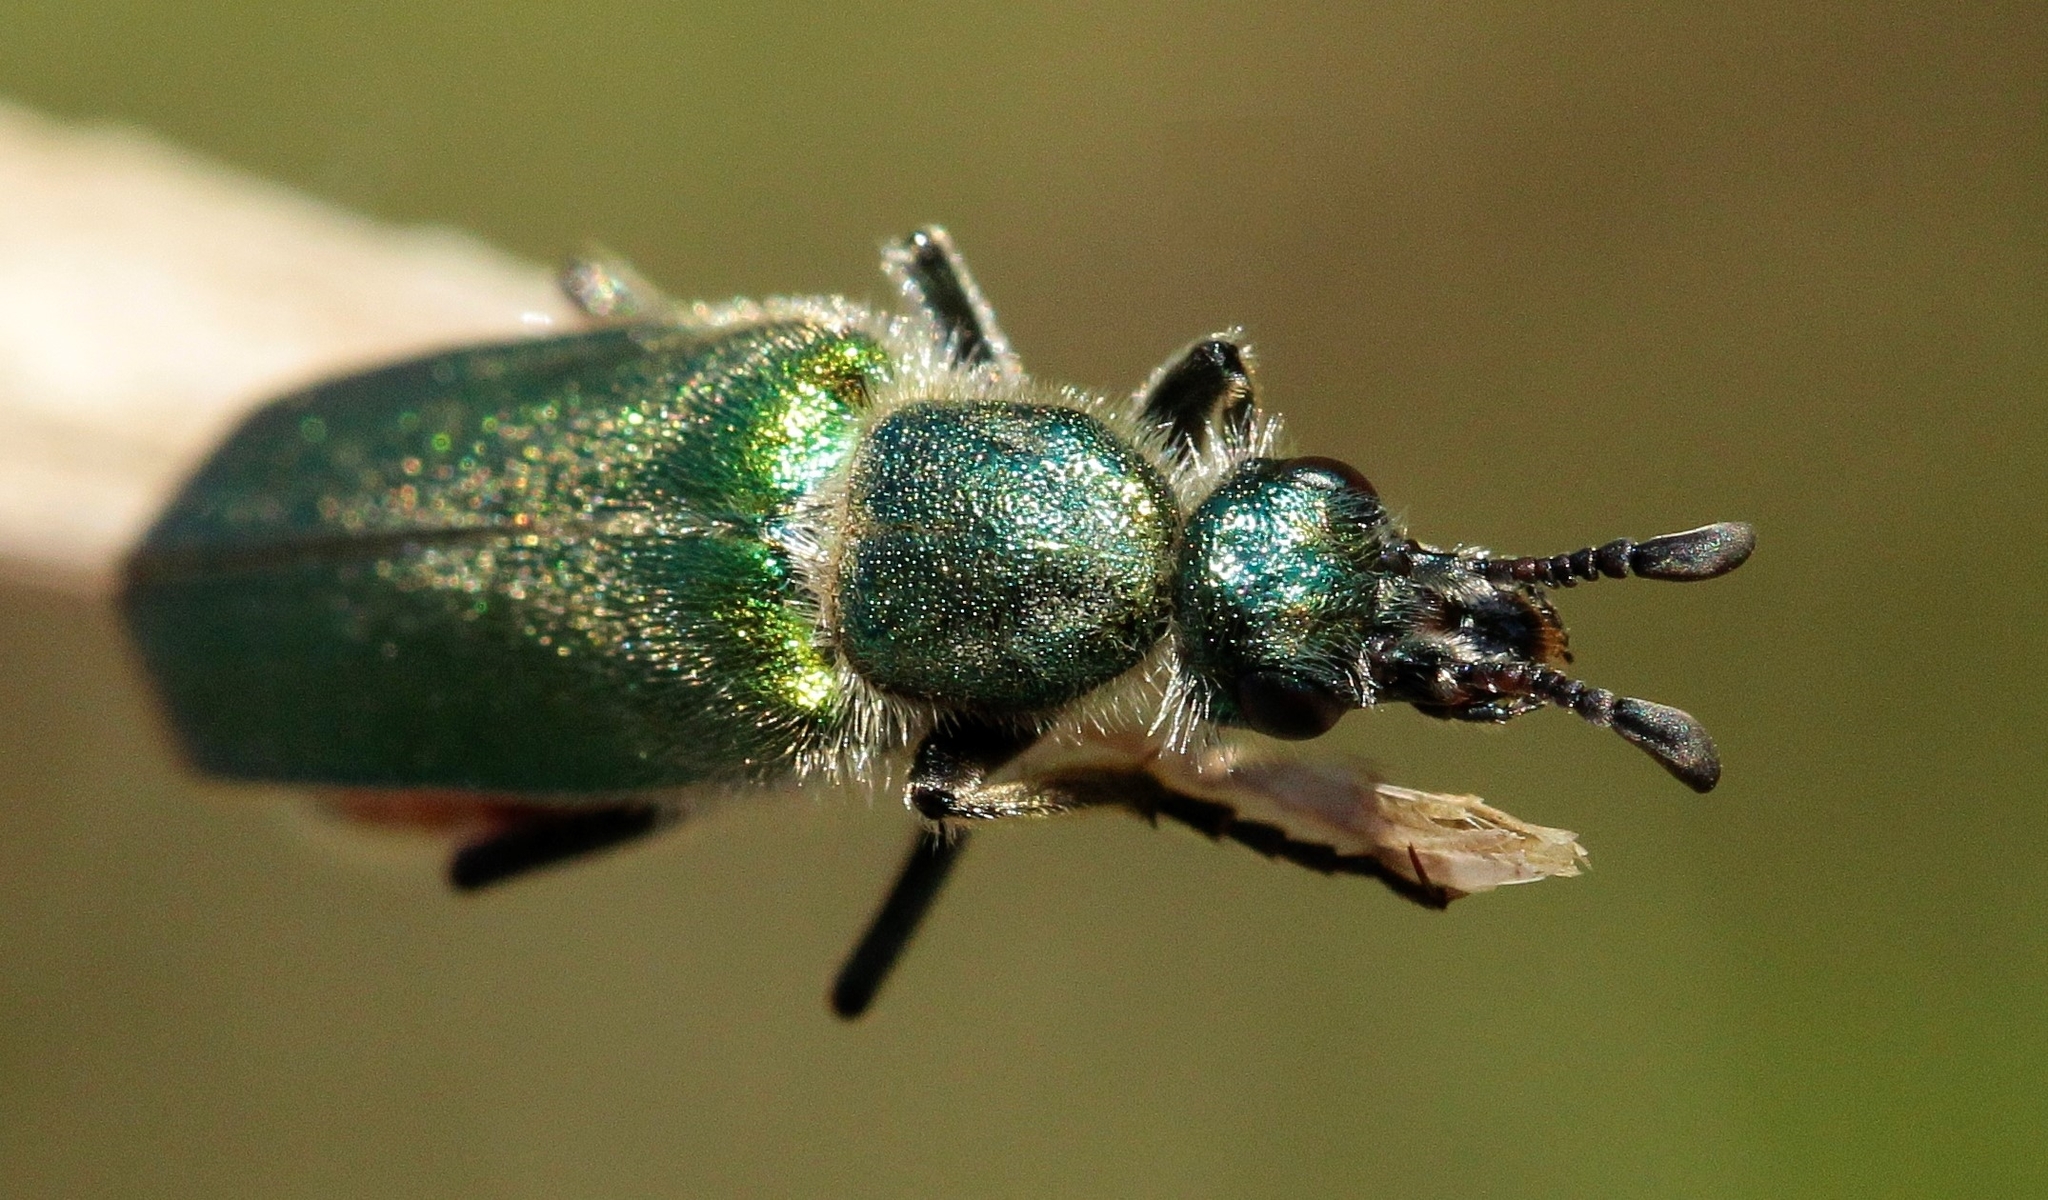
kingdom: Animalia
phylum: Arthropoda
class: Insecta
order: Coleoptera
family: Meloidae
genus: Cerocoma
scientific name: Cerocoma schreberi
